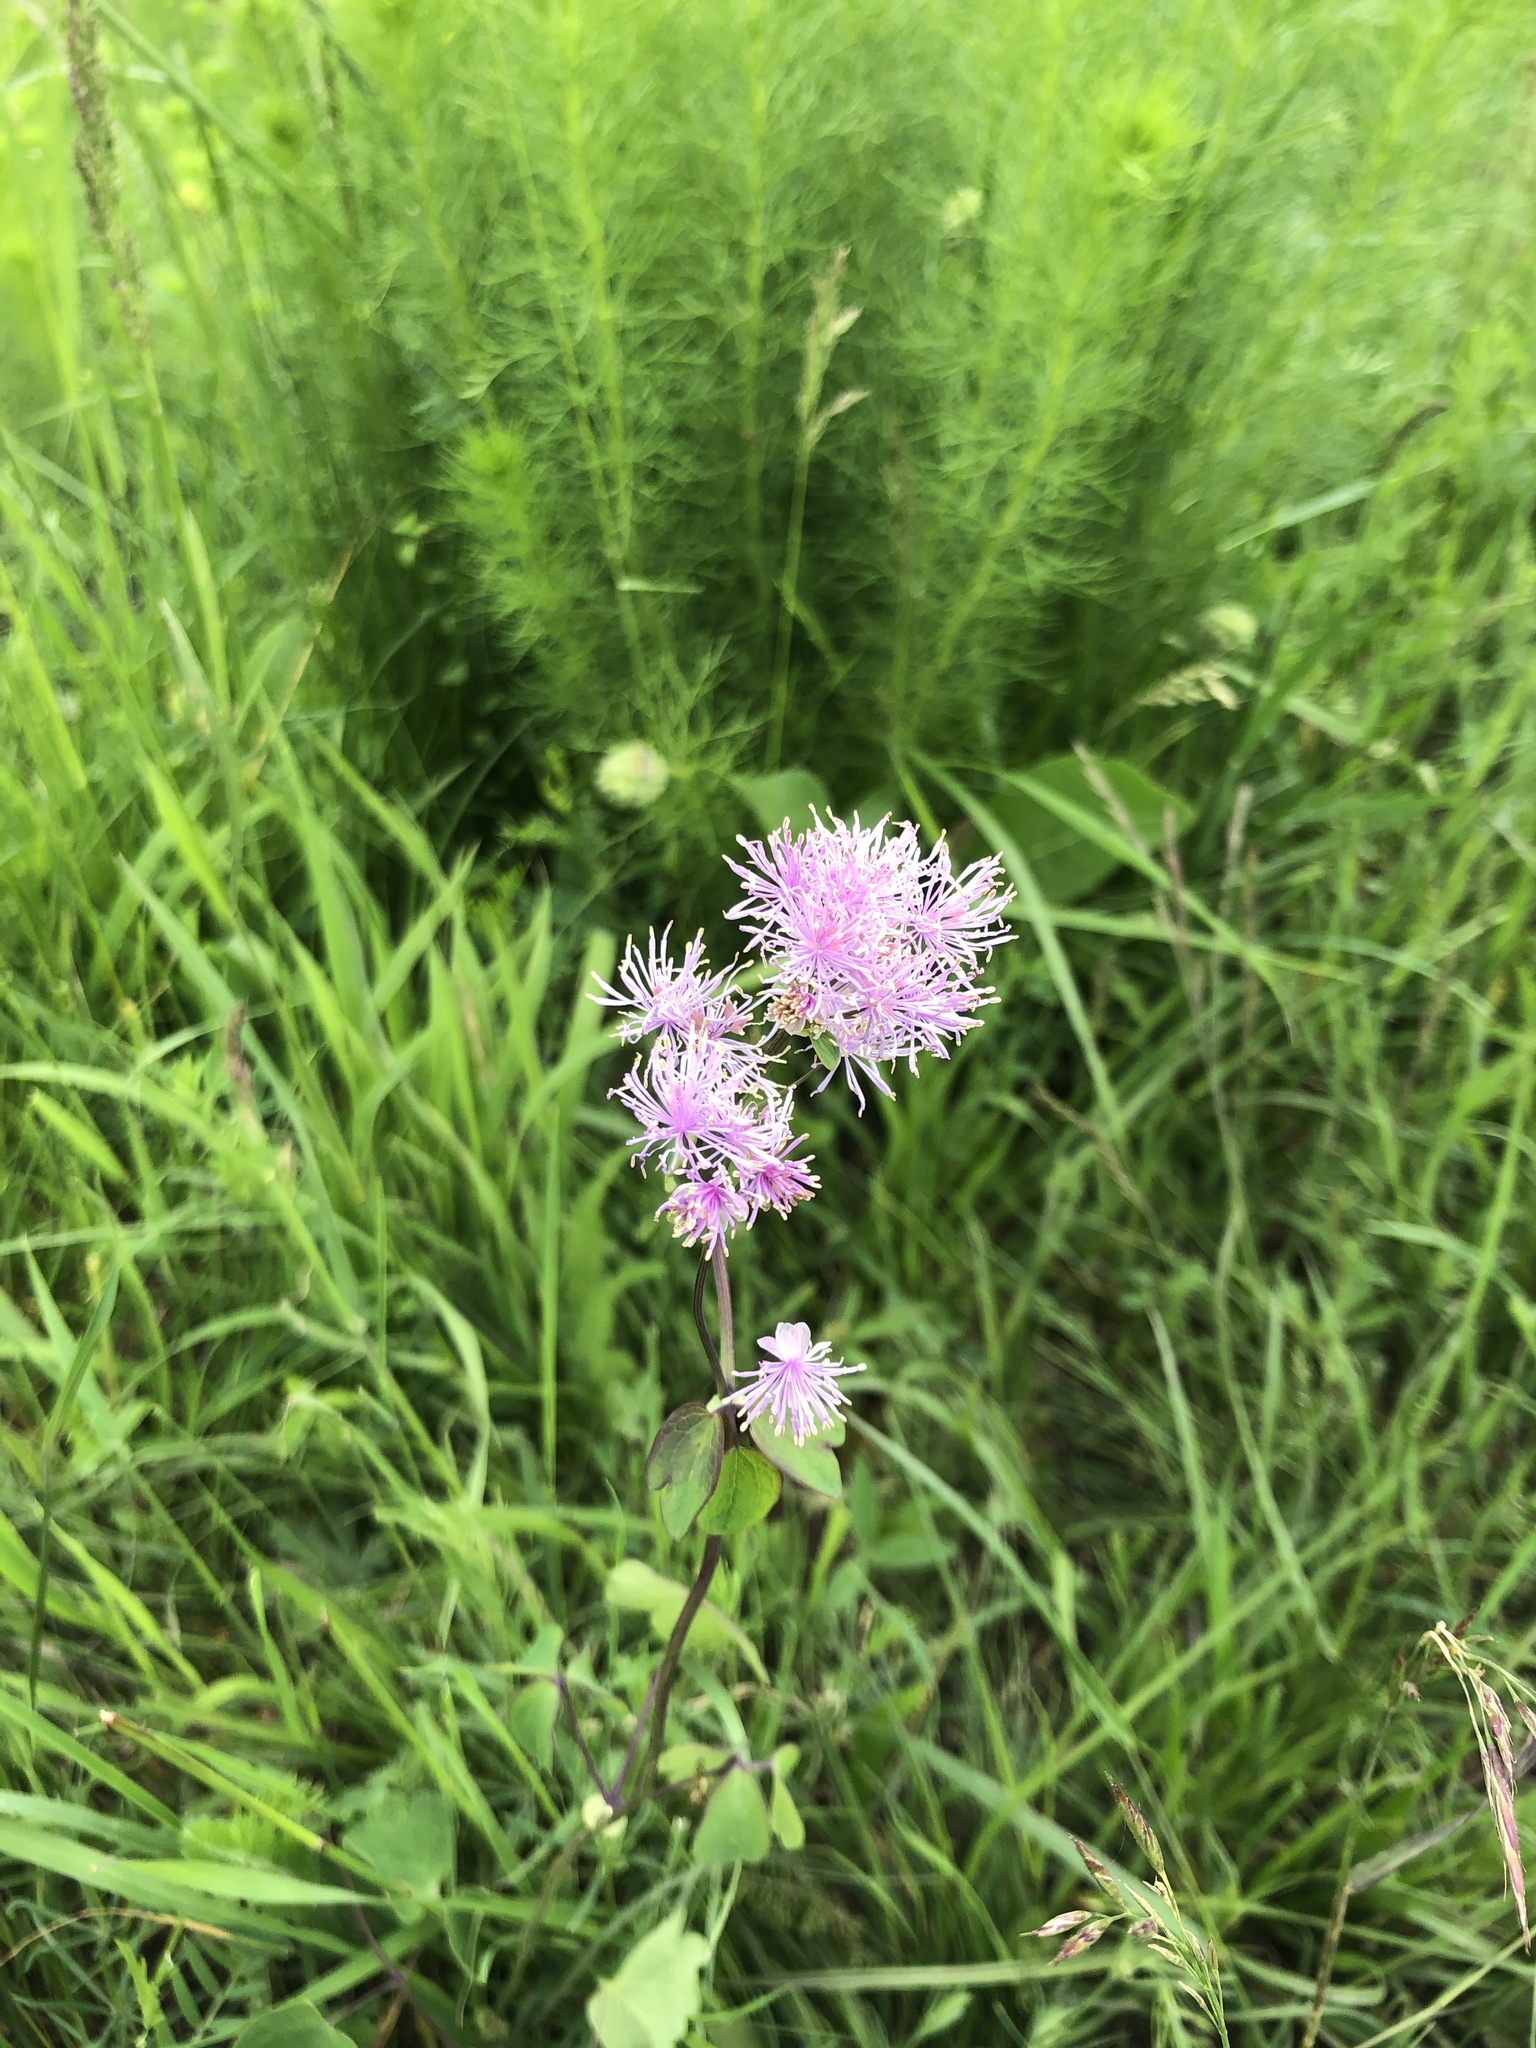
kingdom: Plantae
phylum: Tracheophyta
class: Magnoliopsida
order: Ranunculales
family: Ranunculaceae
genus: Thalictrum
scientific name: Thalictrum aquilegiifolium
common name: French meadow-rue
